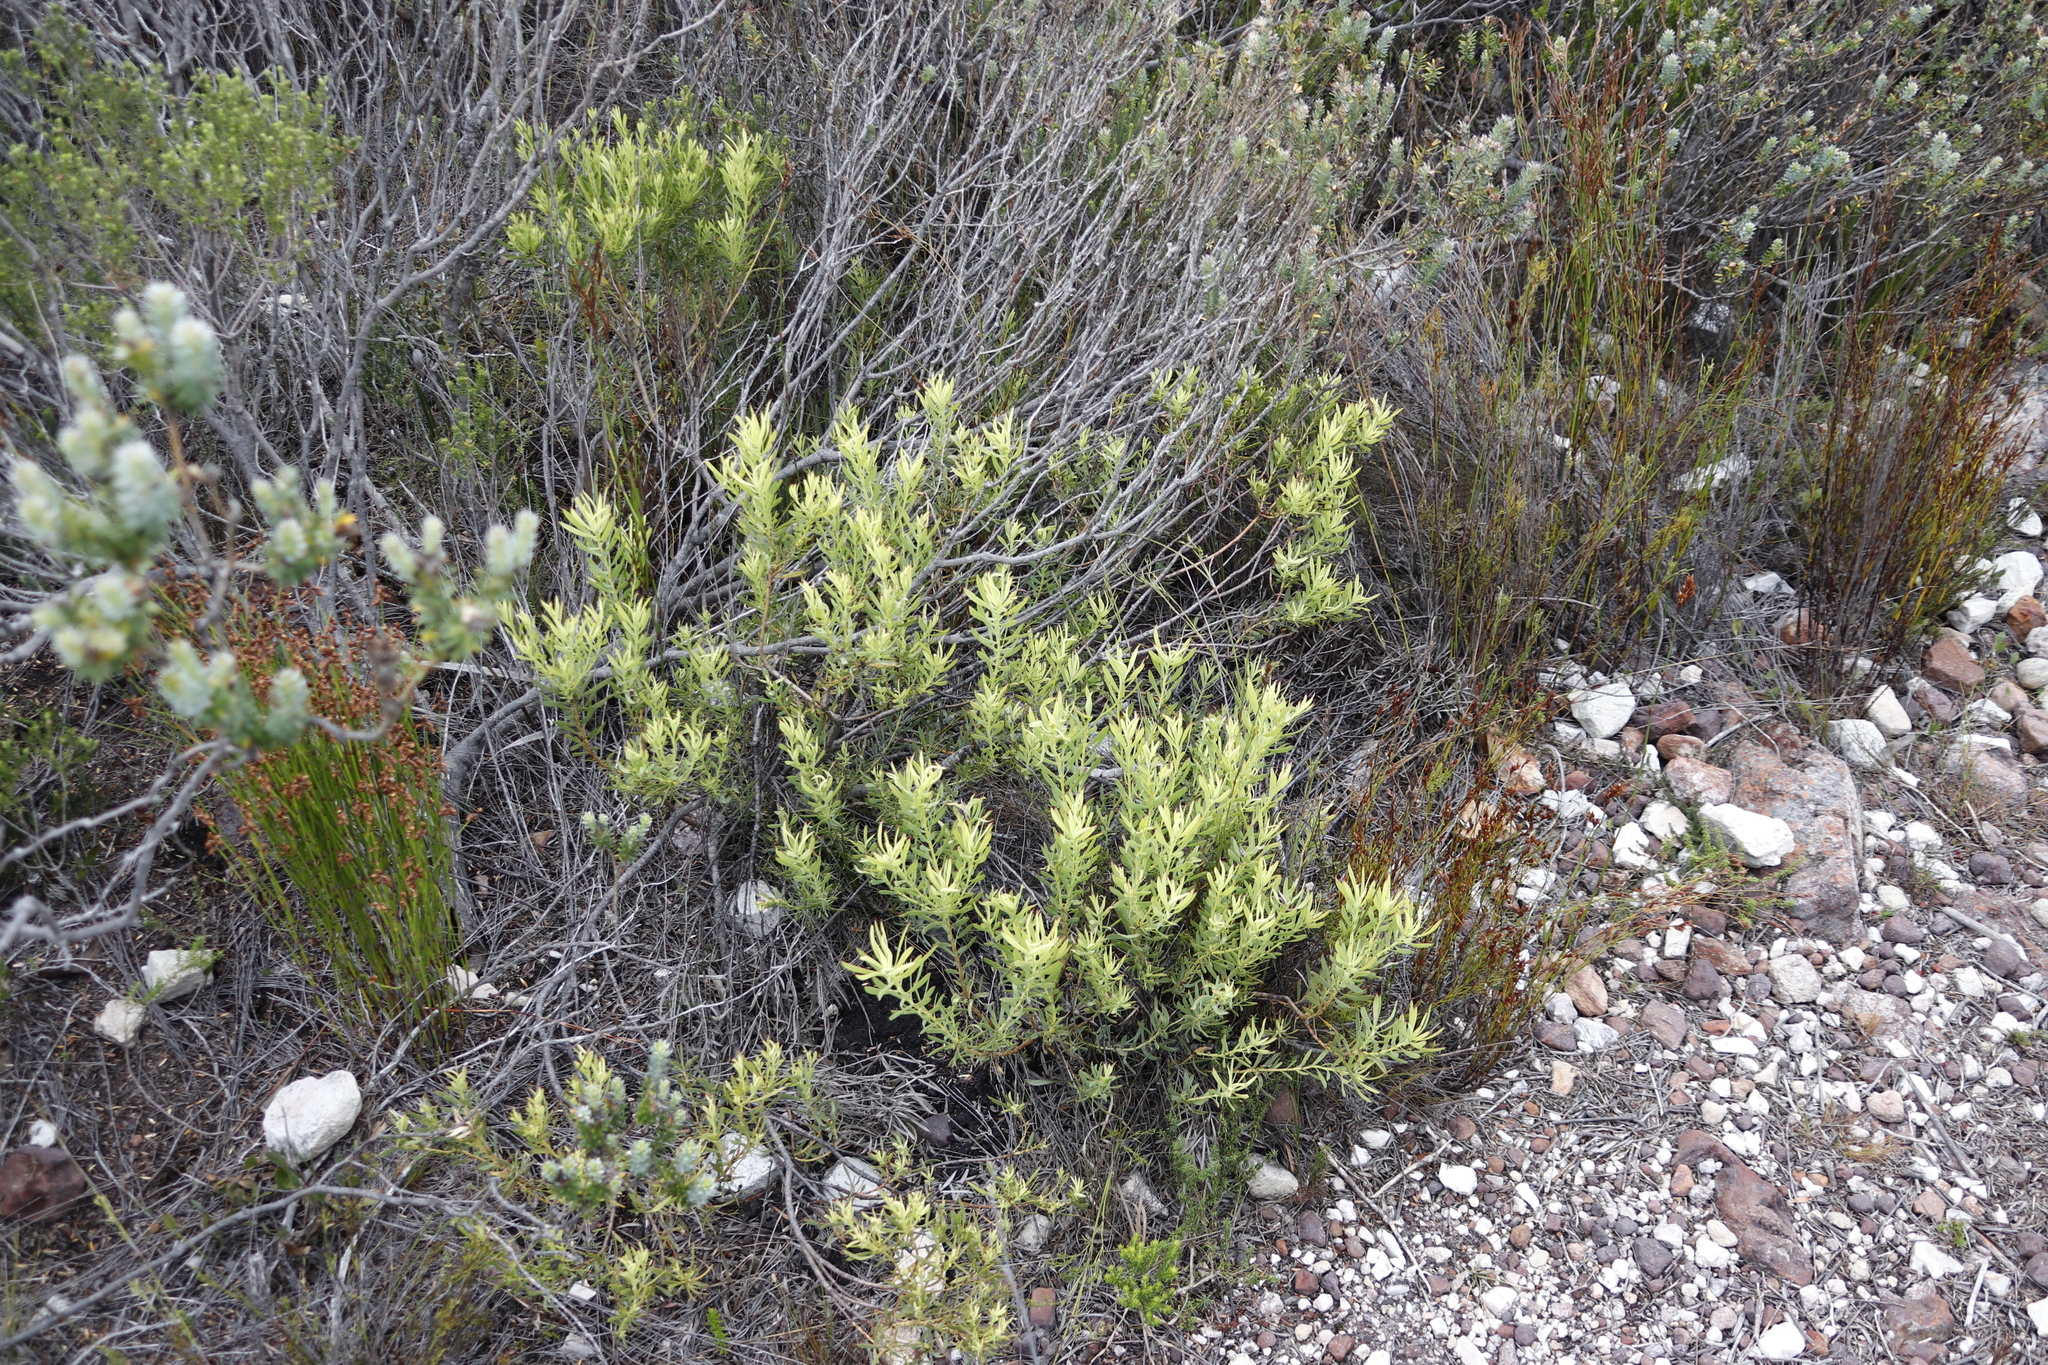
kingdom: Plantae
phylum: Tracheophyta
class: Magnoliopsida
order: Proteales
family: Proteaceae
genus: Leucadendron
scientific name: Leucadendron salignum
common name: Common sunshine conebush
